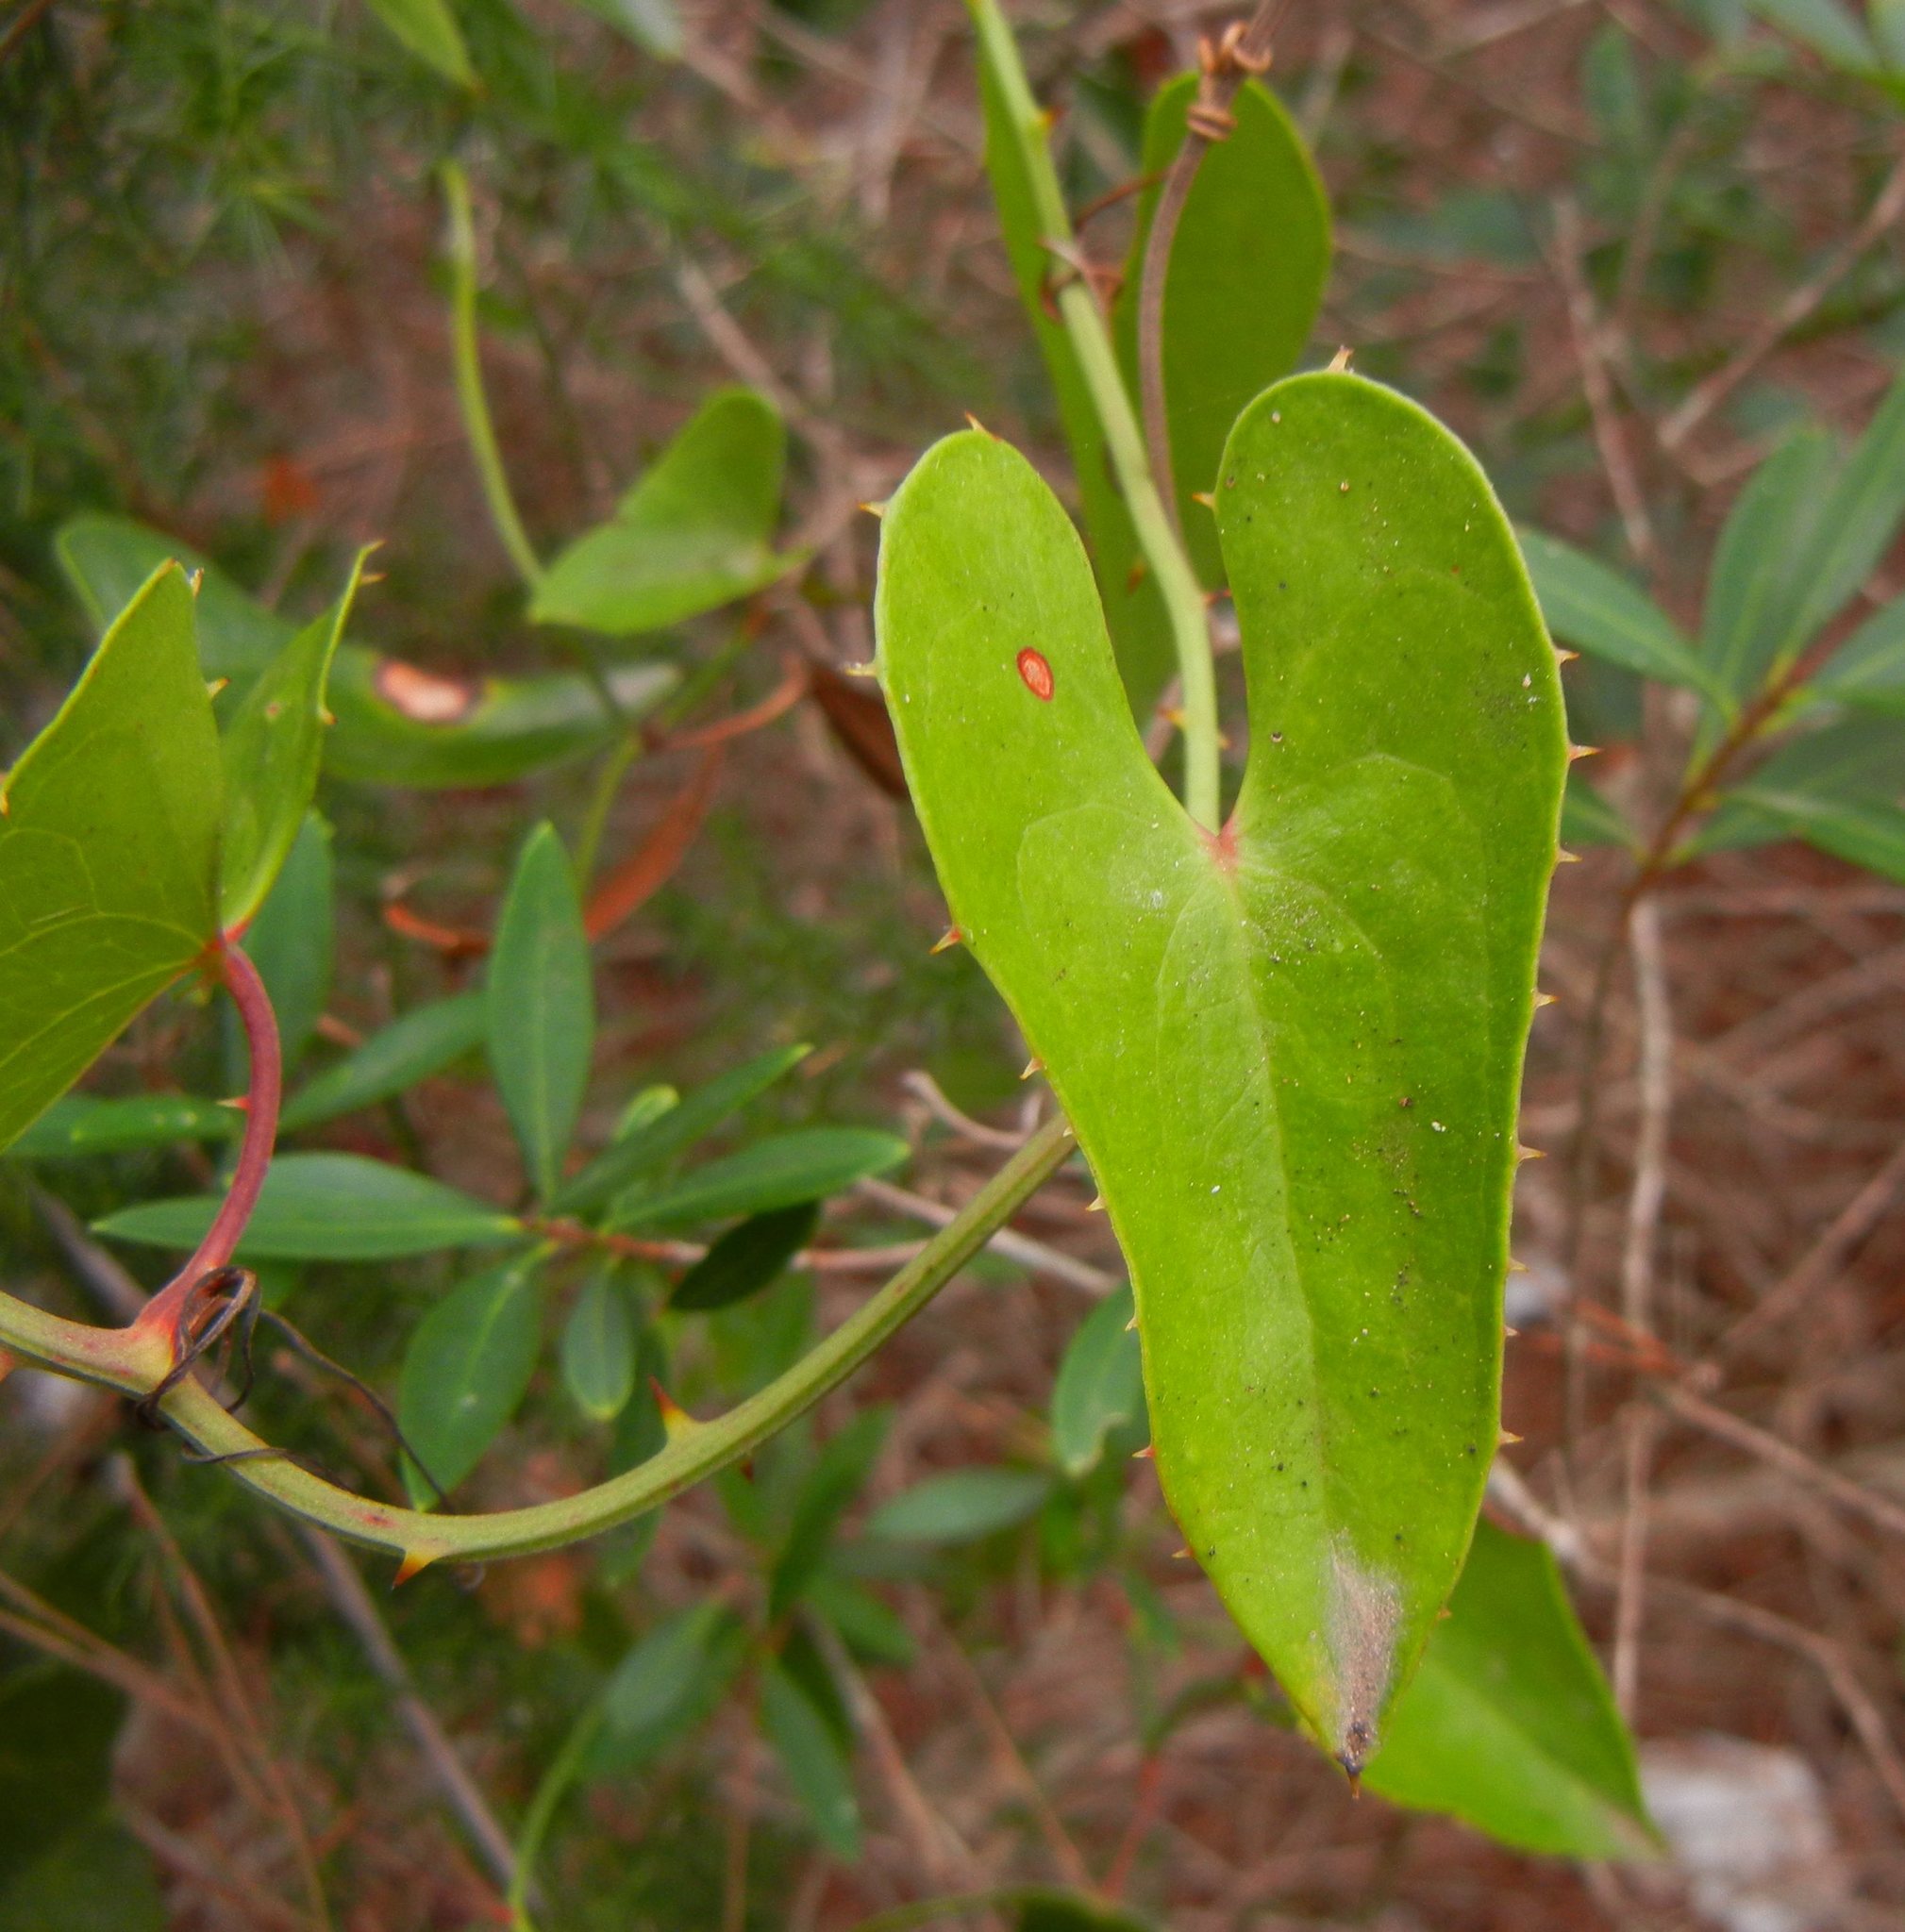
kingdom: Plantae
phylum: Tracheophyta
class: Liliopsida
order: Liliales
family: Smilacaceae
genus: Smilax
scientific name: Smilax aspera
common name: Common smilax
